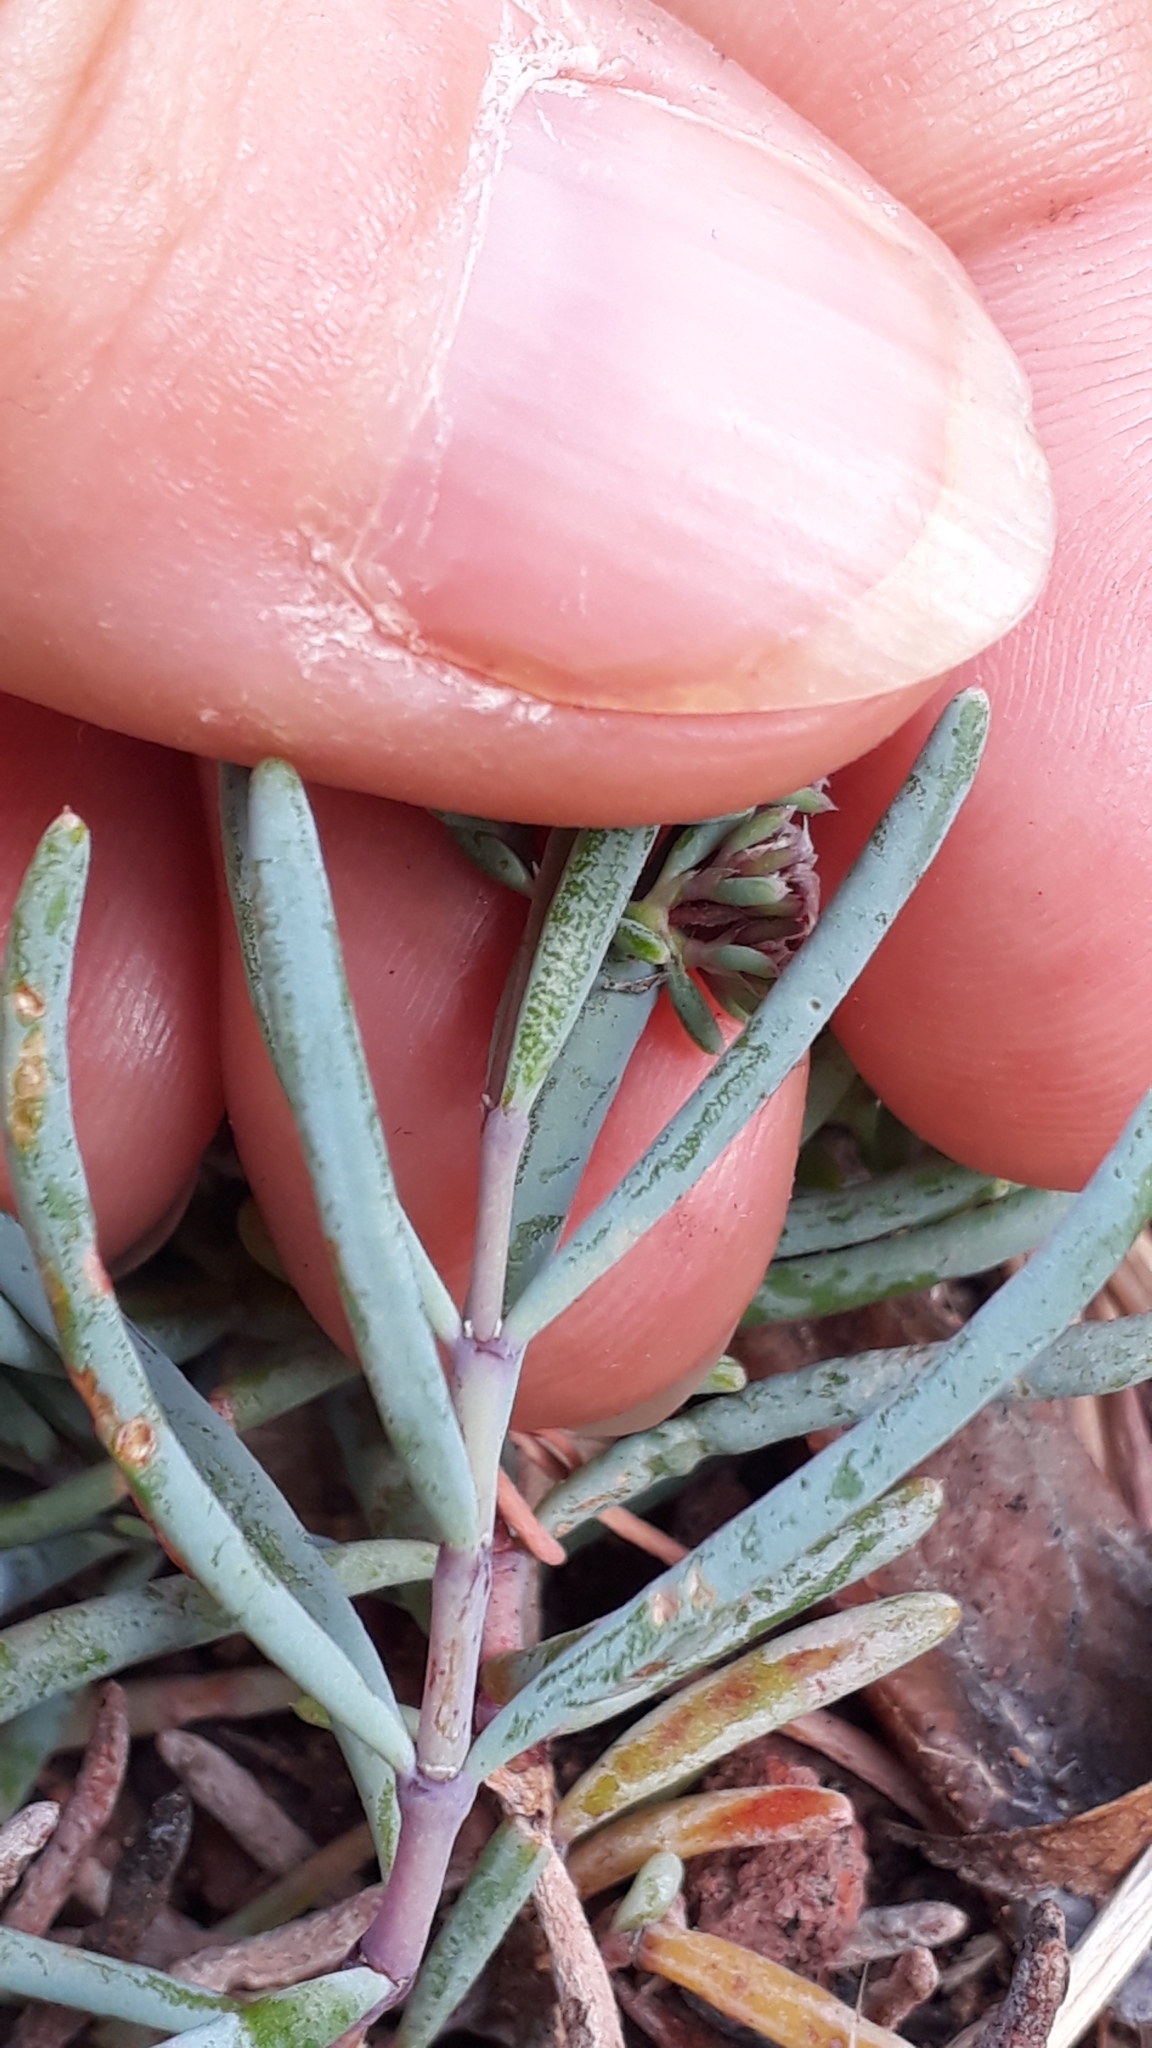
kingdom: Plantae
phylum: Tracheophyta
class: Magnoliopsida
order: Caryophyllales
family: Caryophyllaceae
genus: Dicheranthus
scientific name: Dicheranthus plocamoides
